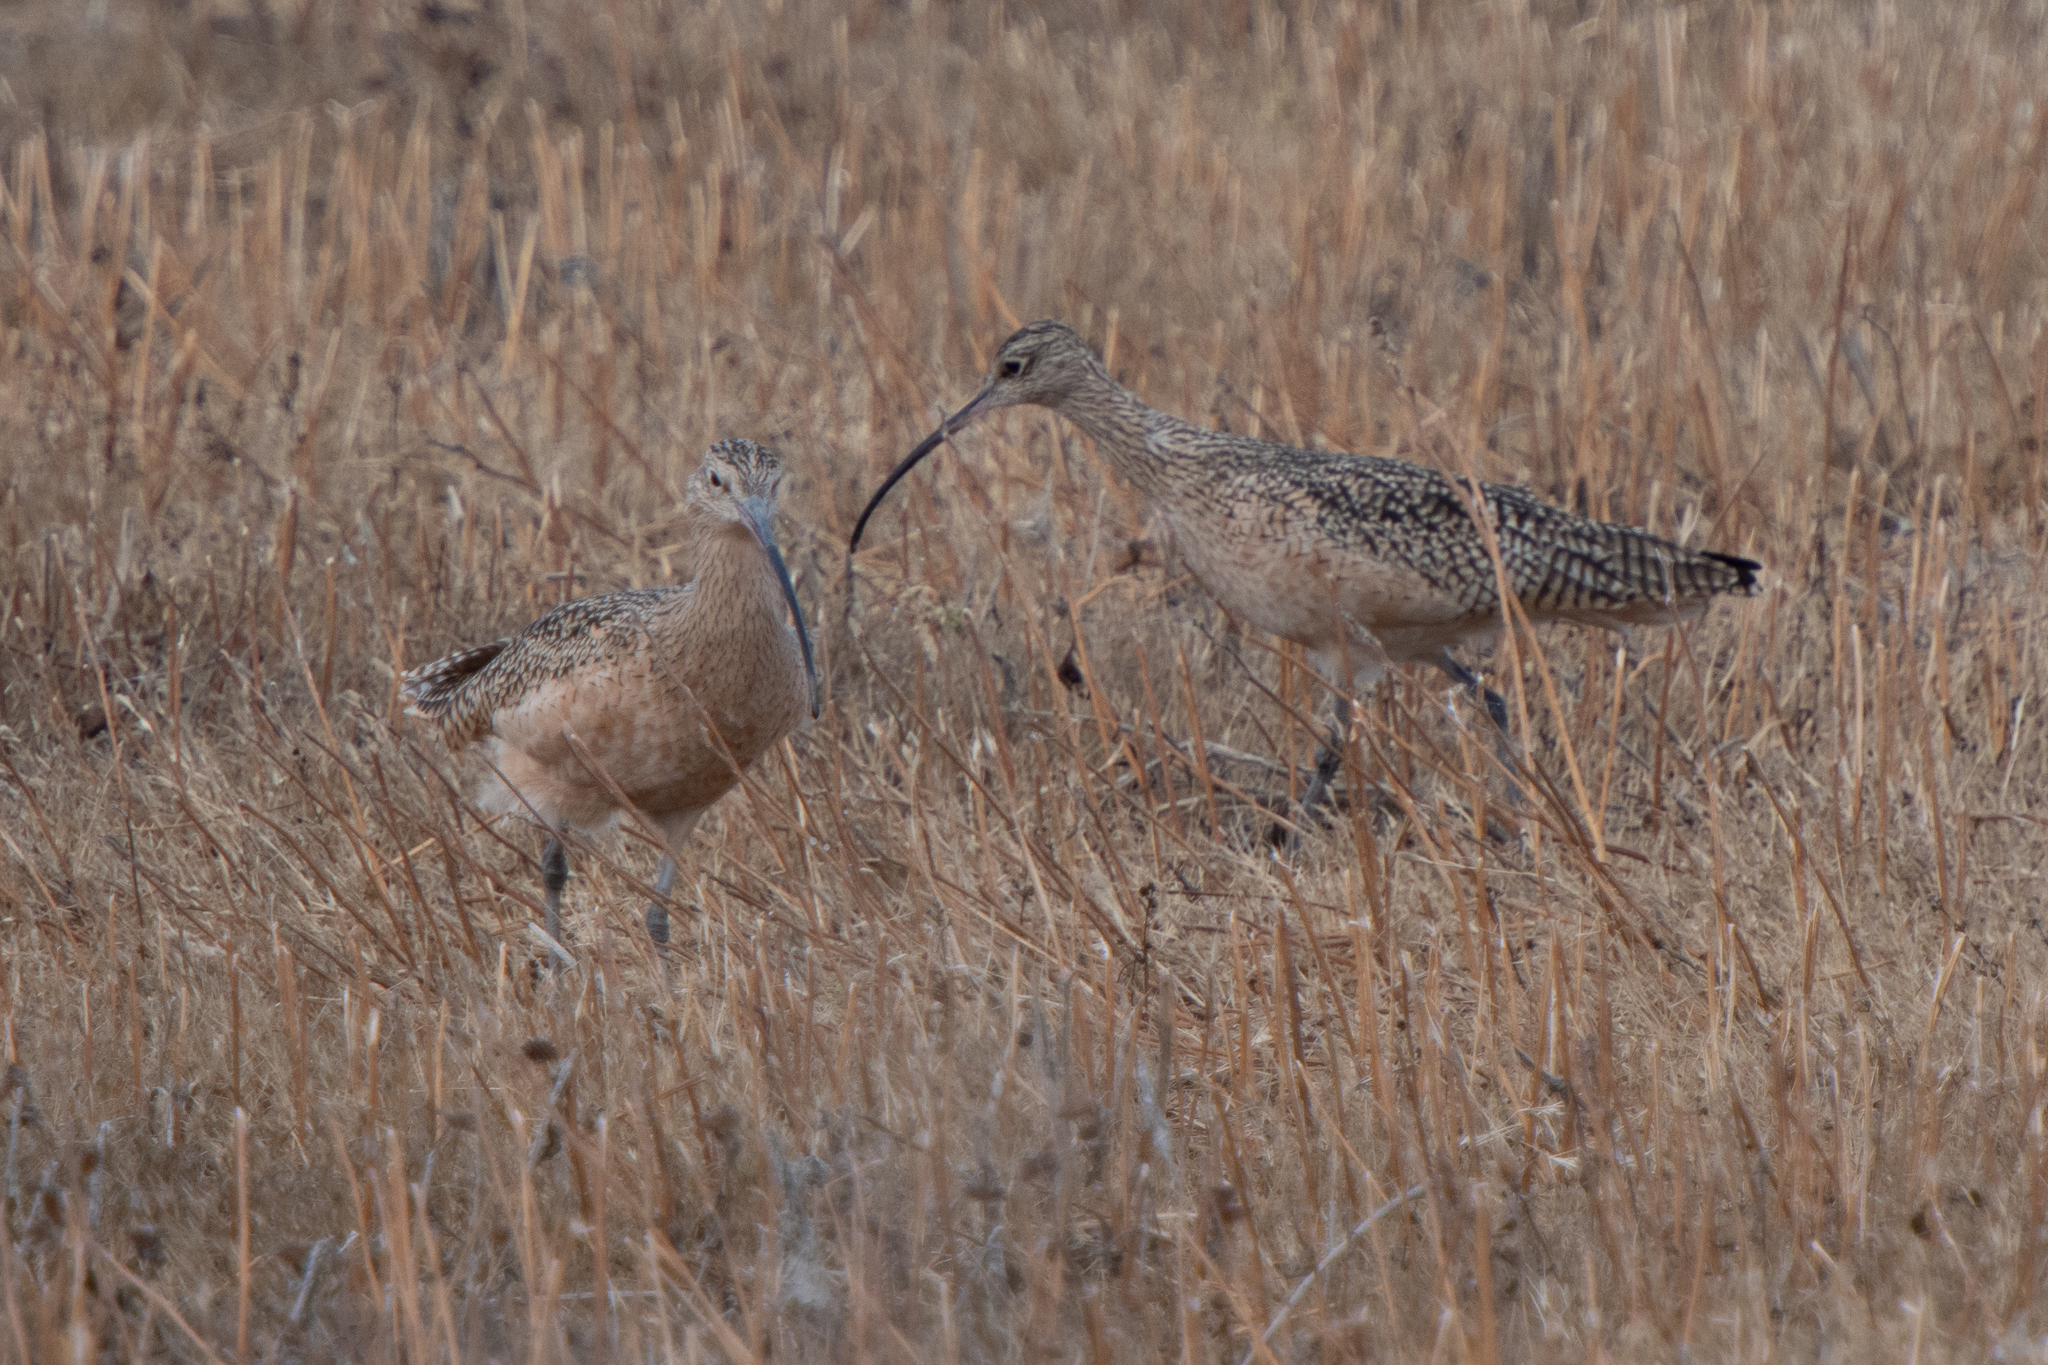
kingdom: Animalia
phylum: Chordata
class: Aves
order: Charadriiformes
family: Scolopacidae
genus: Numenius
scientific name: Numenius americanus
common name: Long-billed curlew
